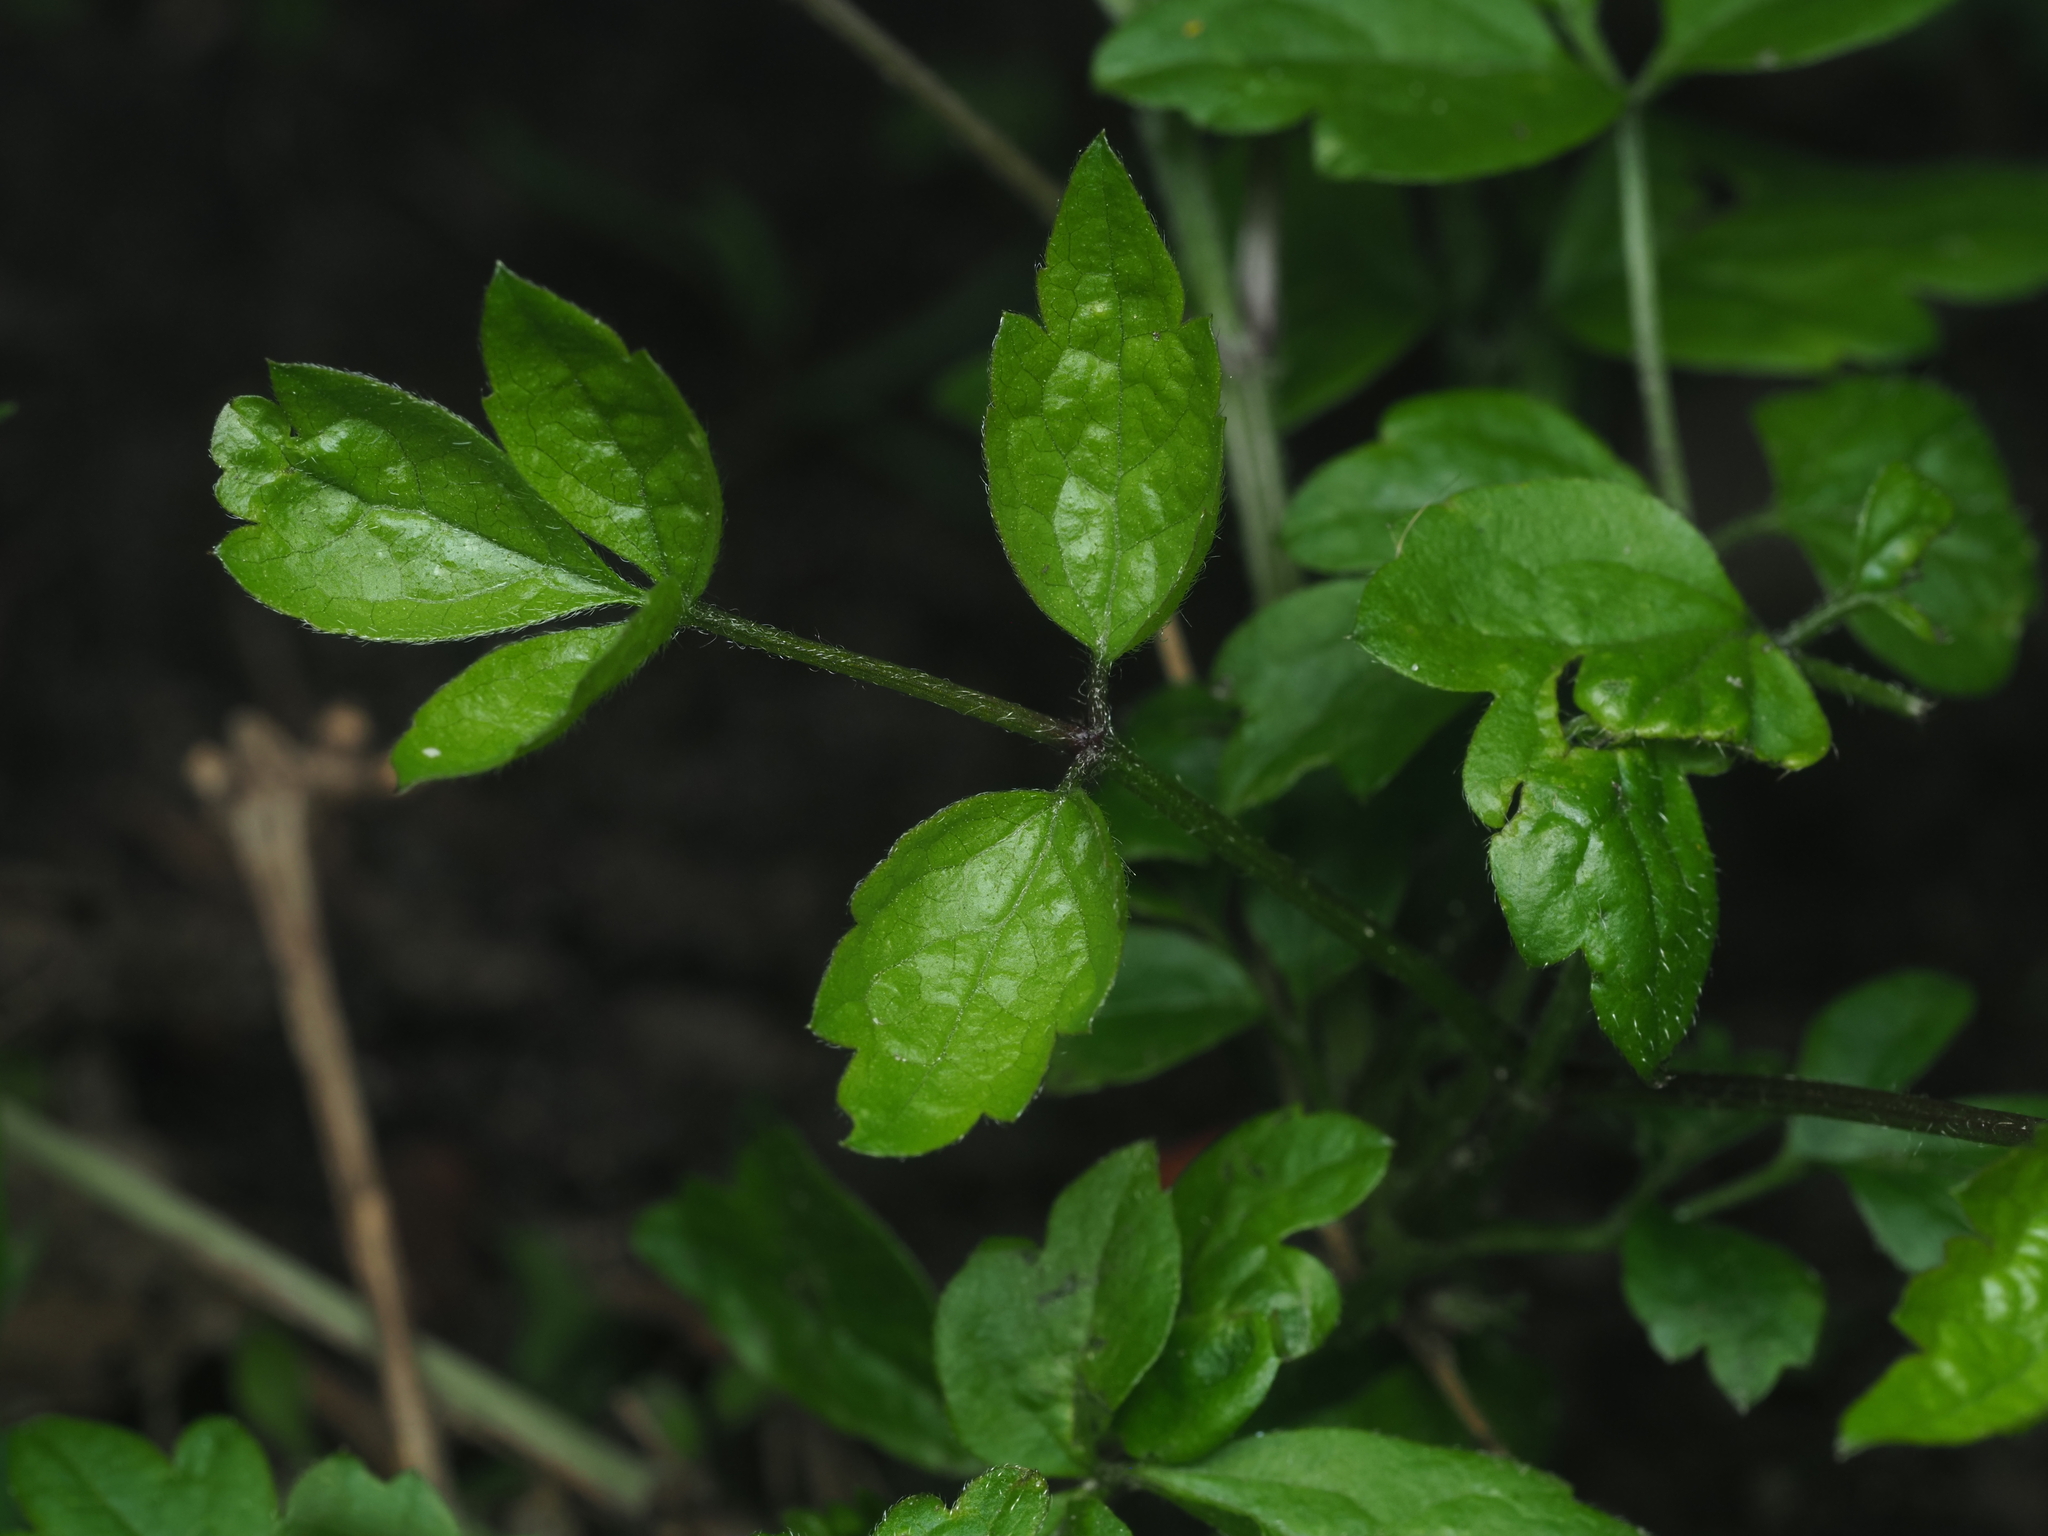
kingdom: Plantae
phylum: Tracheophyta
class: Magnoliopsida
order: Ranunculales
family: Ranunculaceae
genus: Clematis
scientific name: Clematis vitalba
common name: Evergreen clematis
